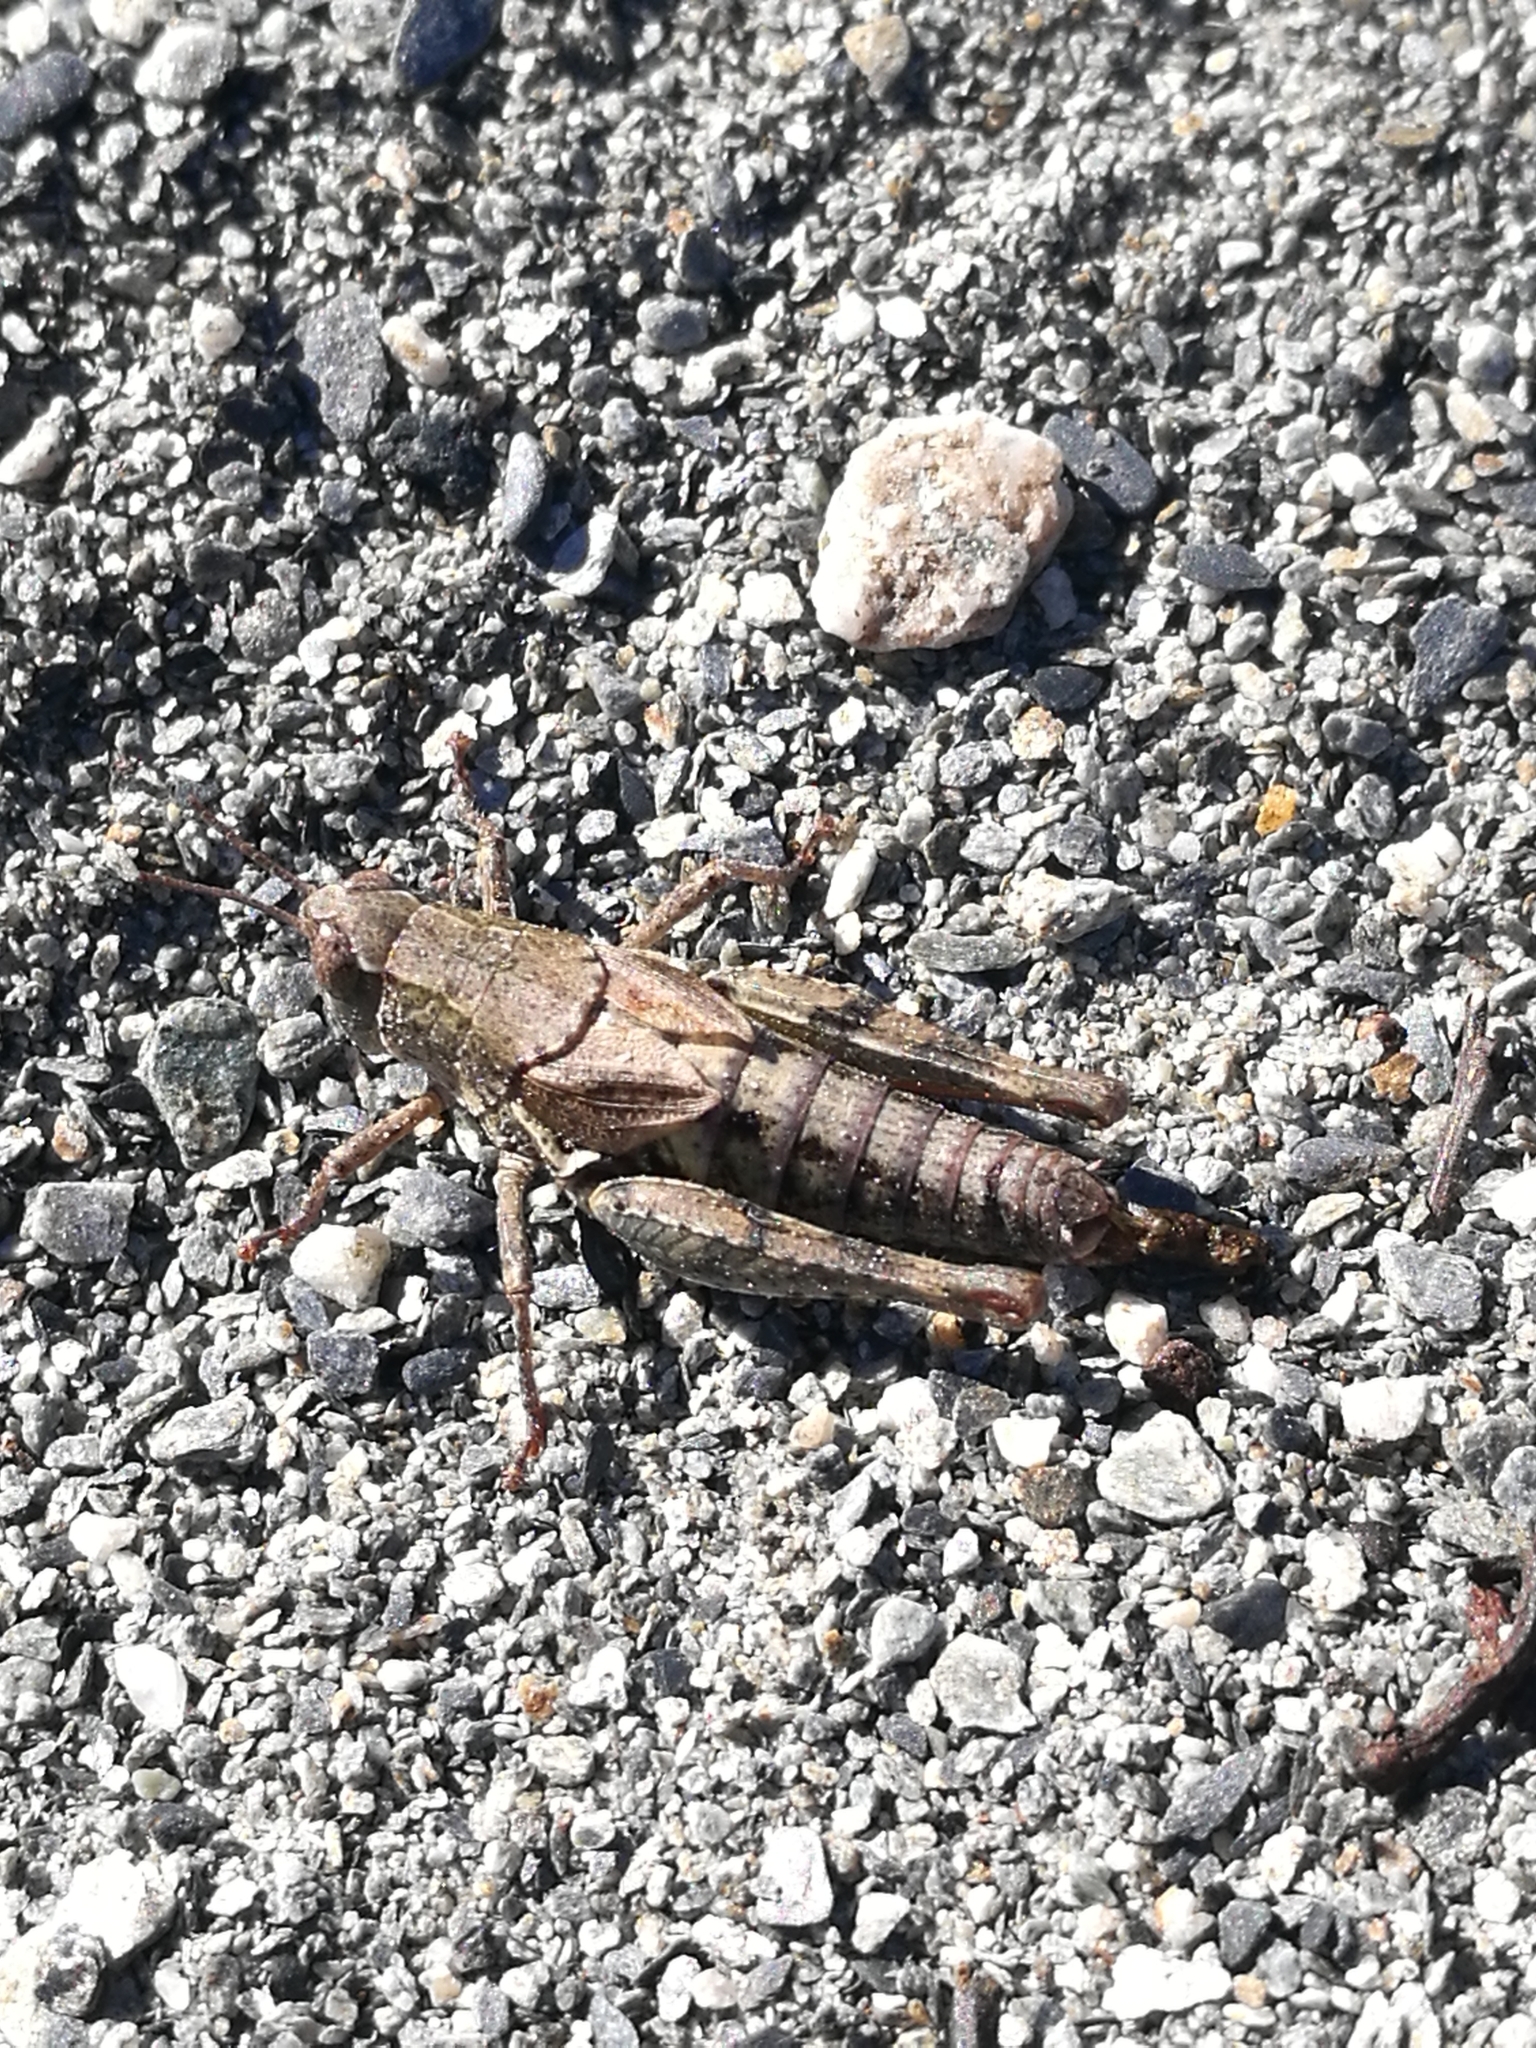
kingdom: Animalia
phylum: Arthropoda
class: Insecta
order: Orthoptera
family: Acrididae
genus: Phaulacridium
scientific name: Phaulacridium marginale
